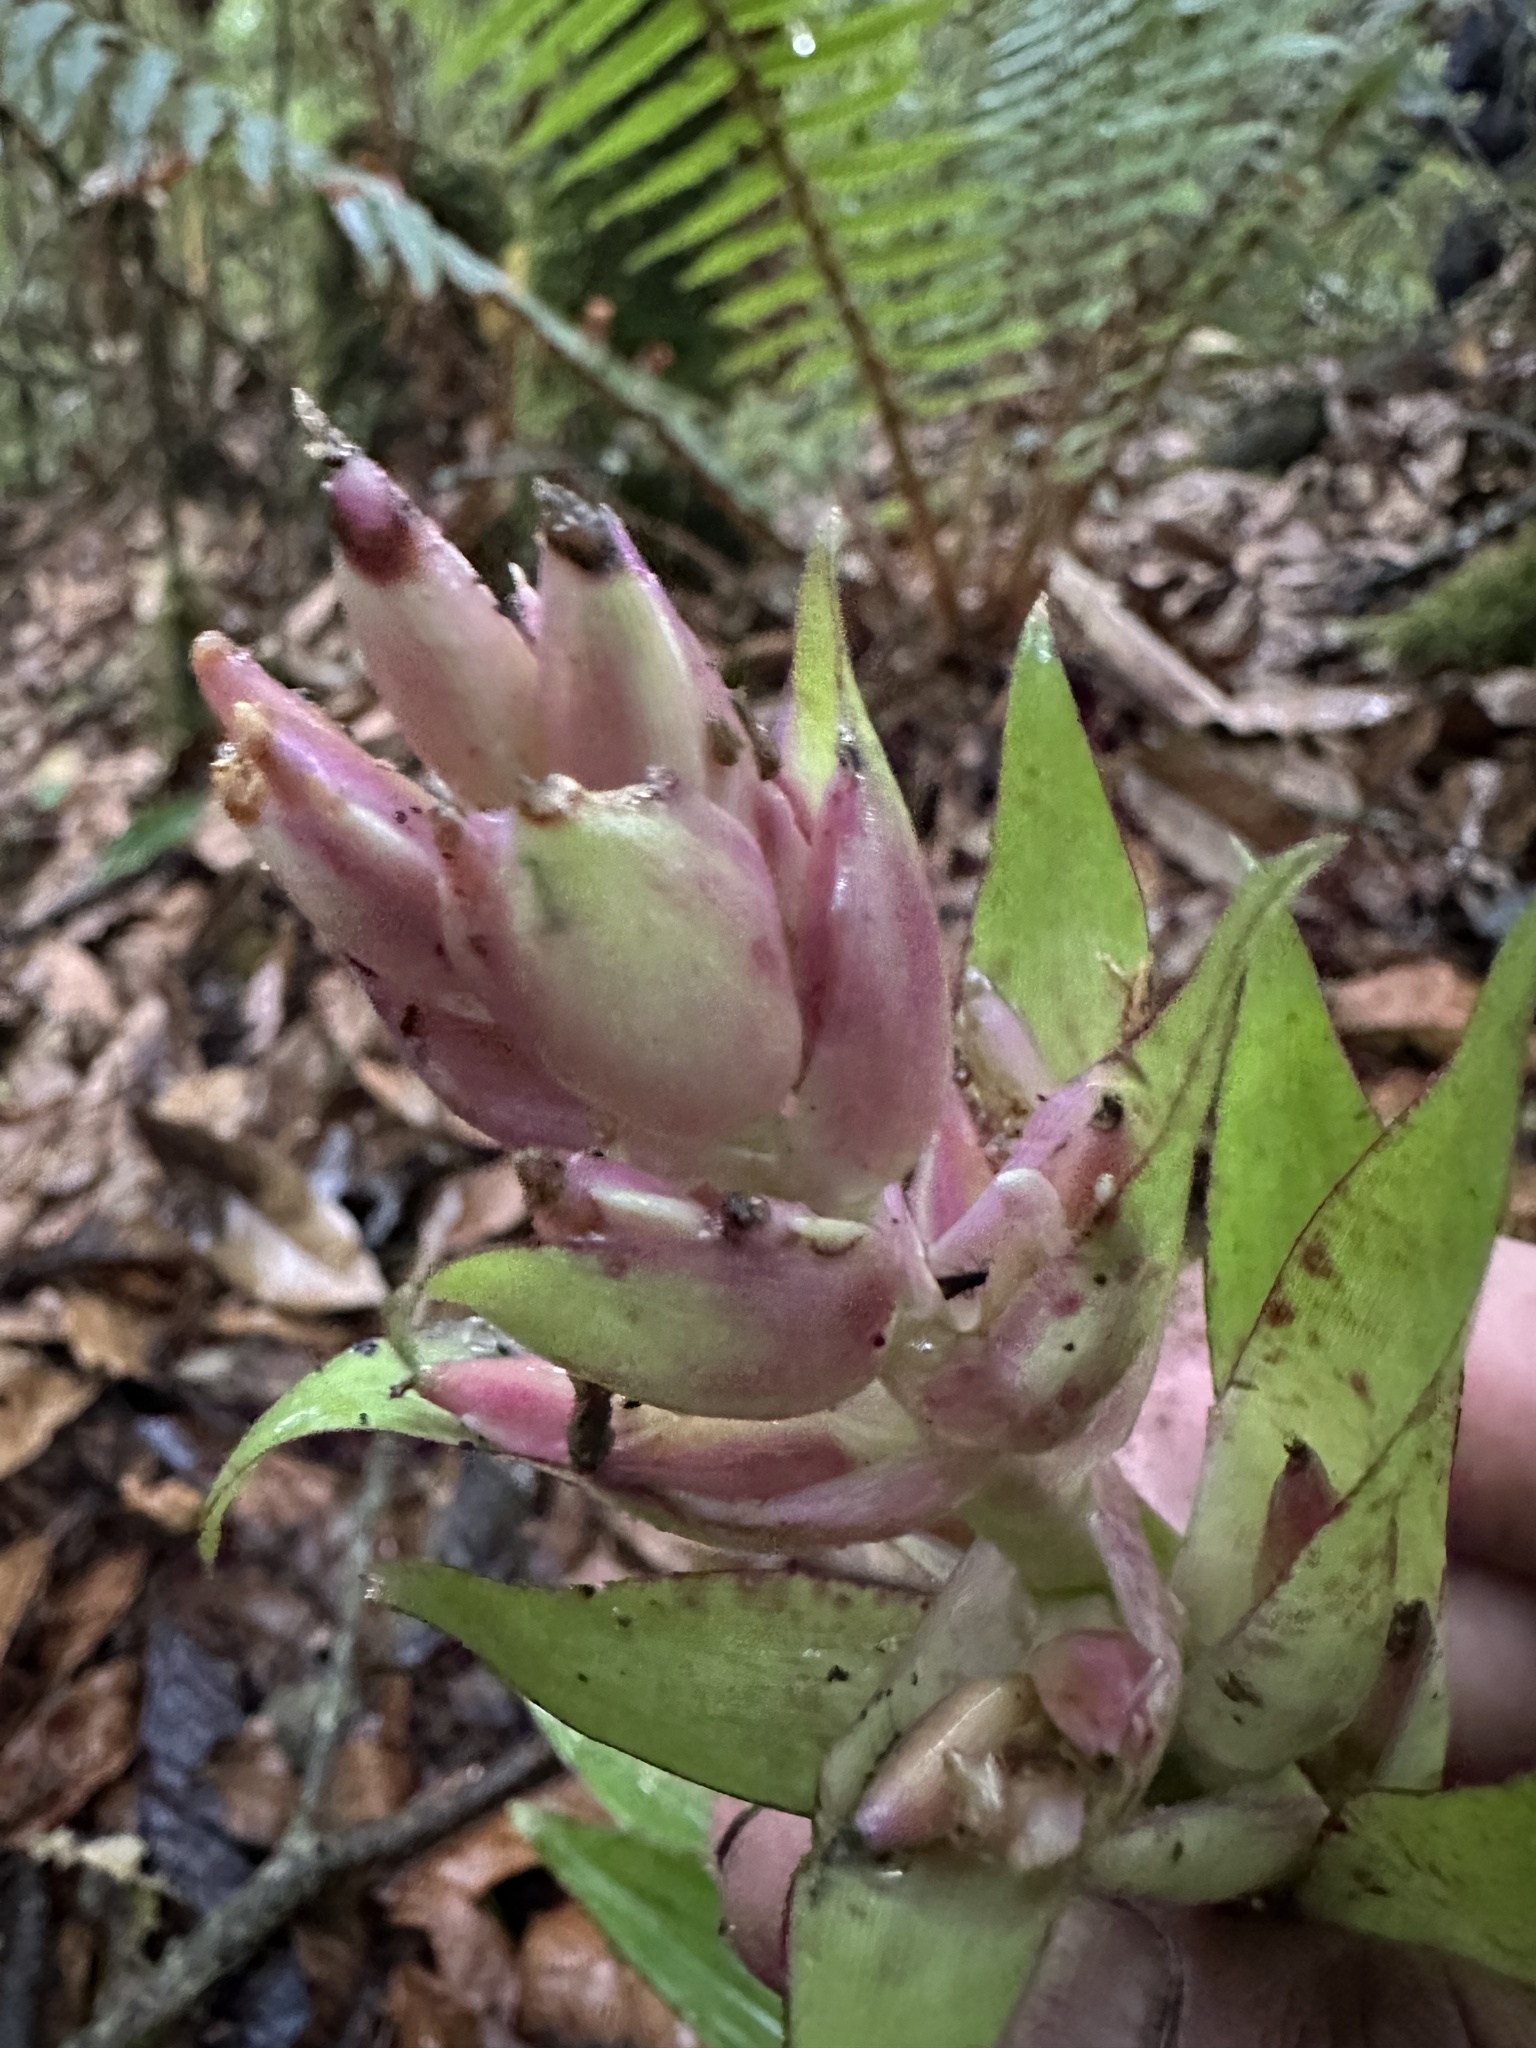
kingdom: Plantae
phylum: Tracheophyta
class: Liliopsida
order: Poales
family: Bromeliaceae
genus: Tillandsia
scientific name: Tillandsia biflora
